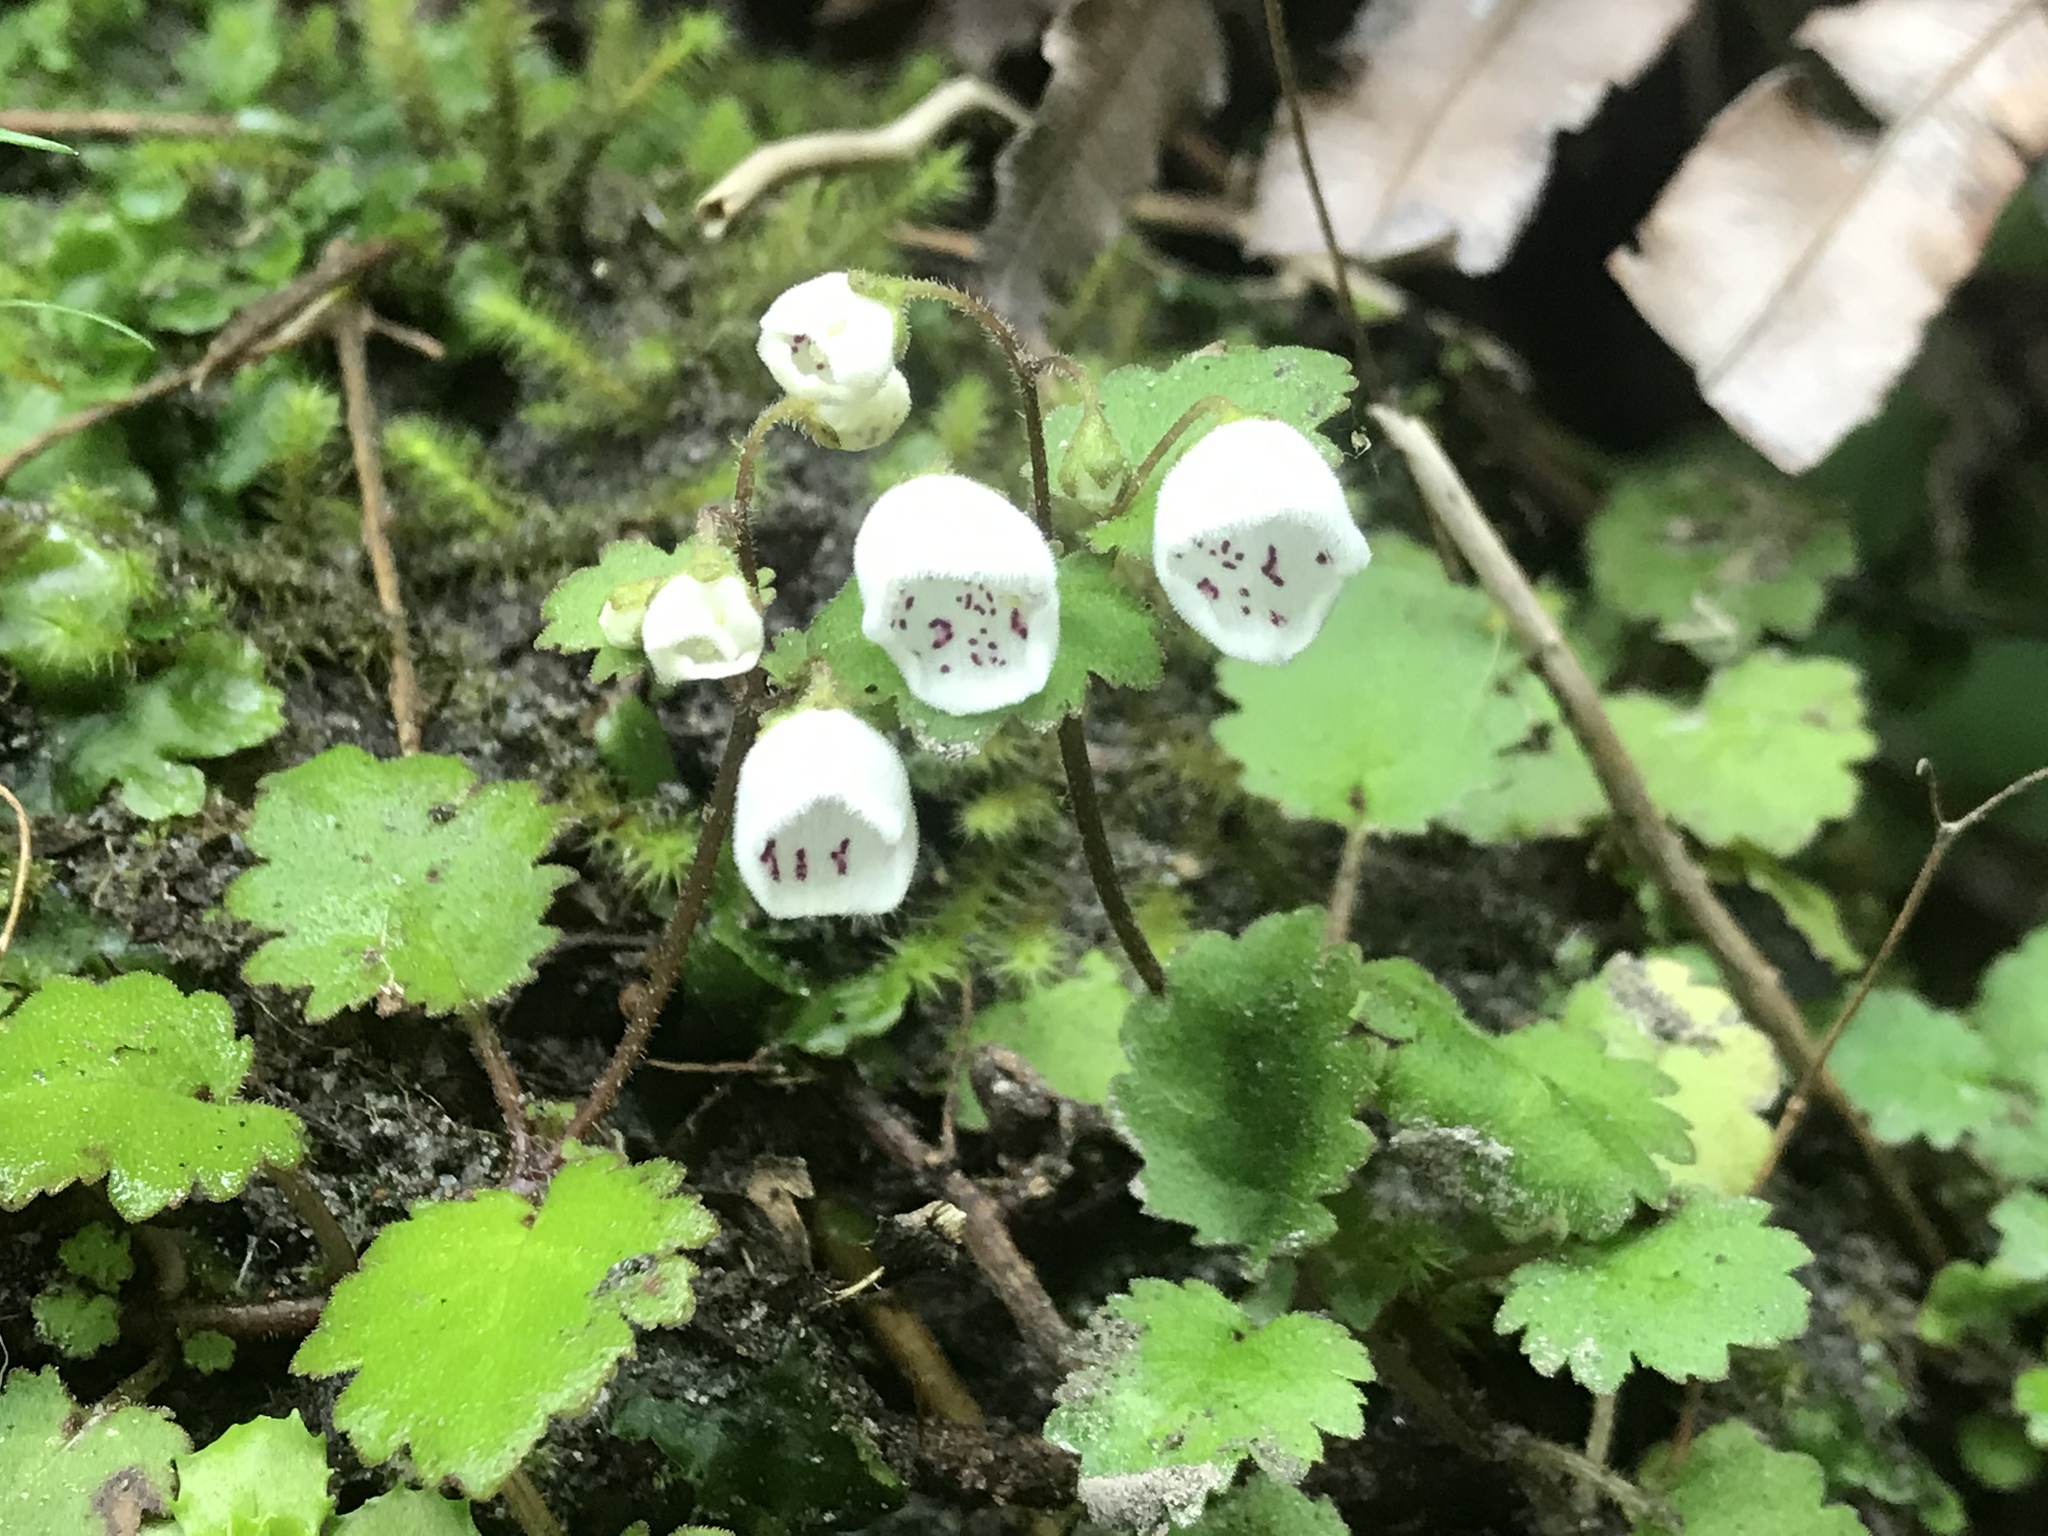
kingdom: Plantae
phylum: Tracheophyta
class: Magnoliopsida
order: Lamiales
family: Calceolariaceae
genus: Jovellana
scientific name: Jovellana repens
